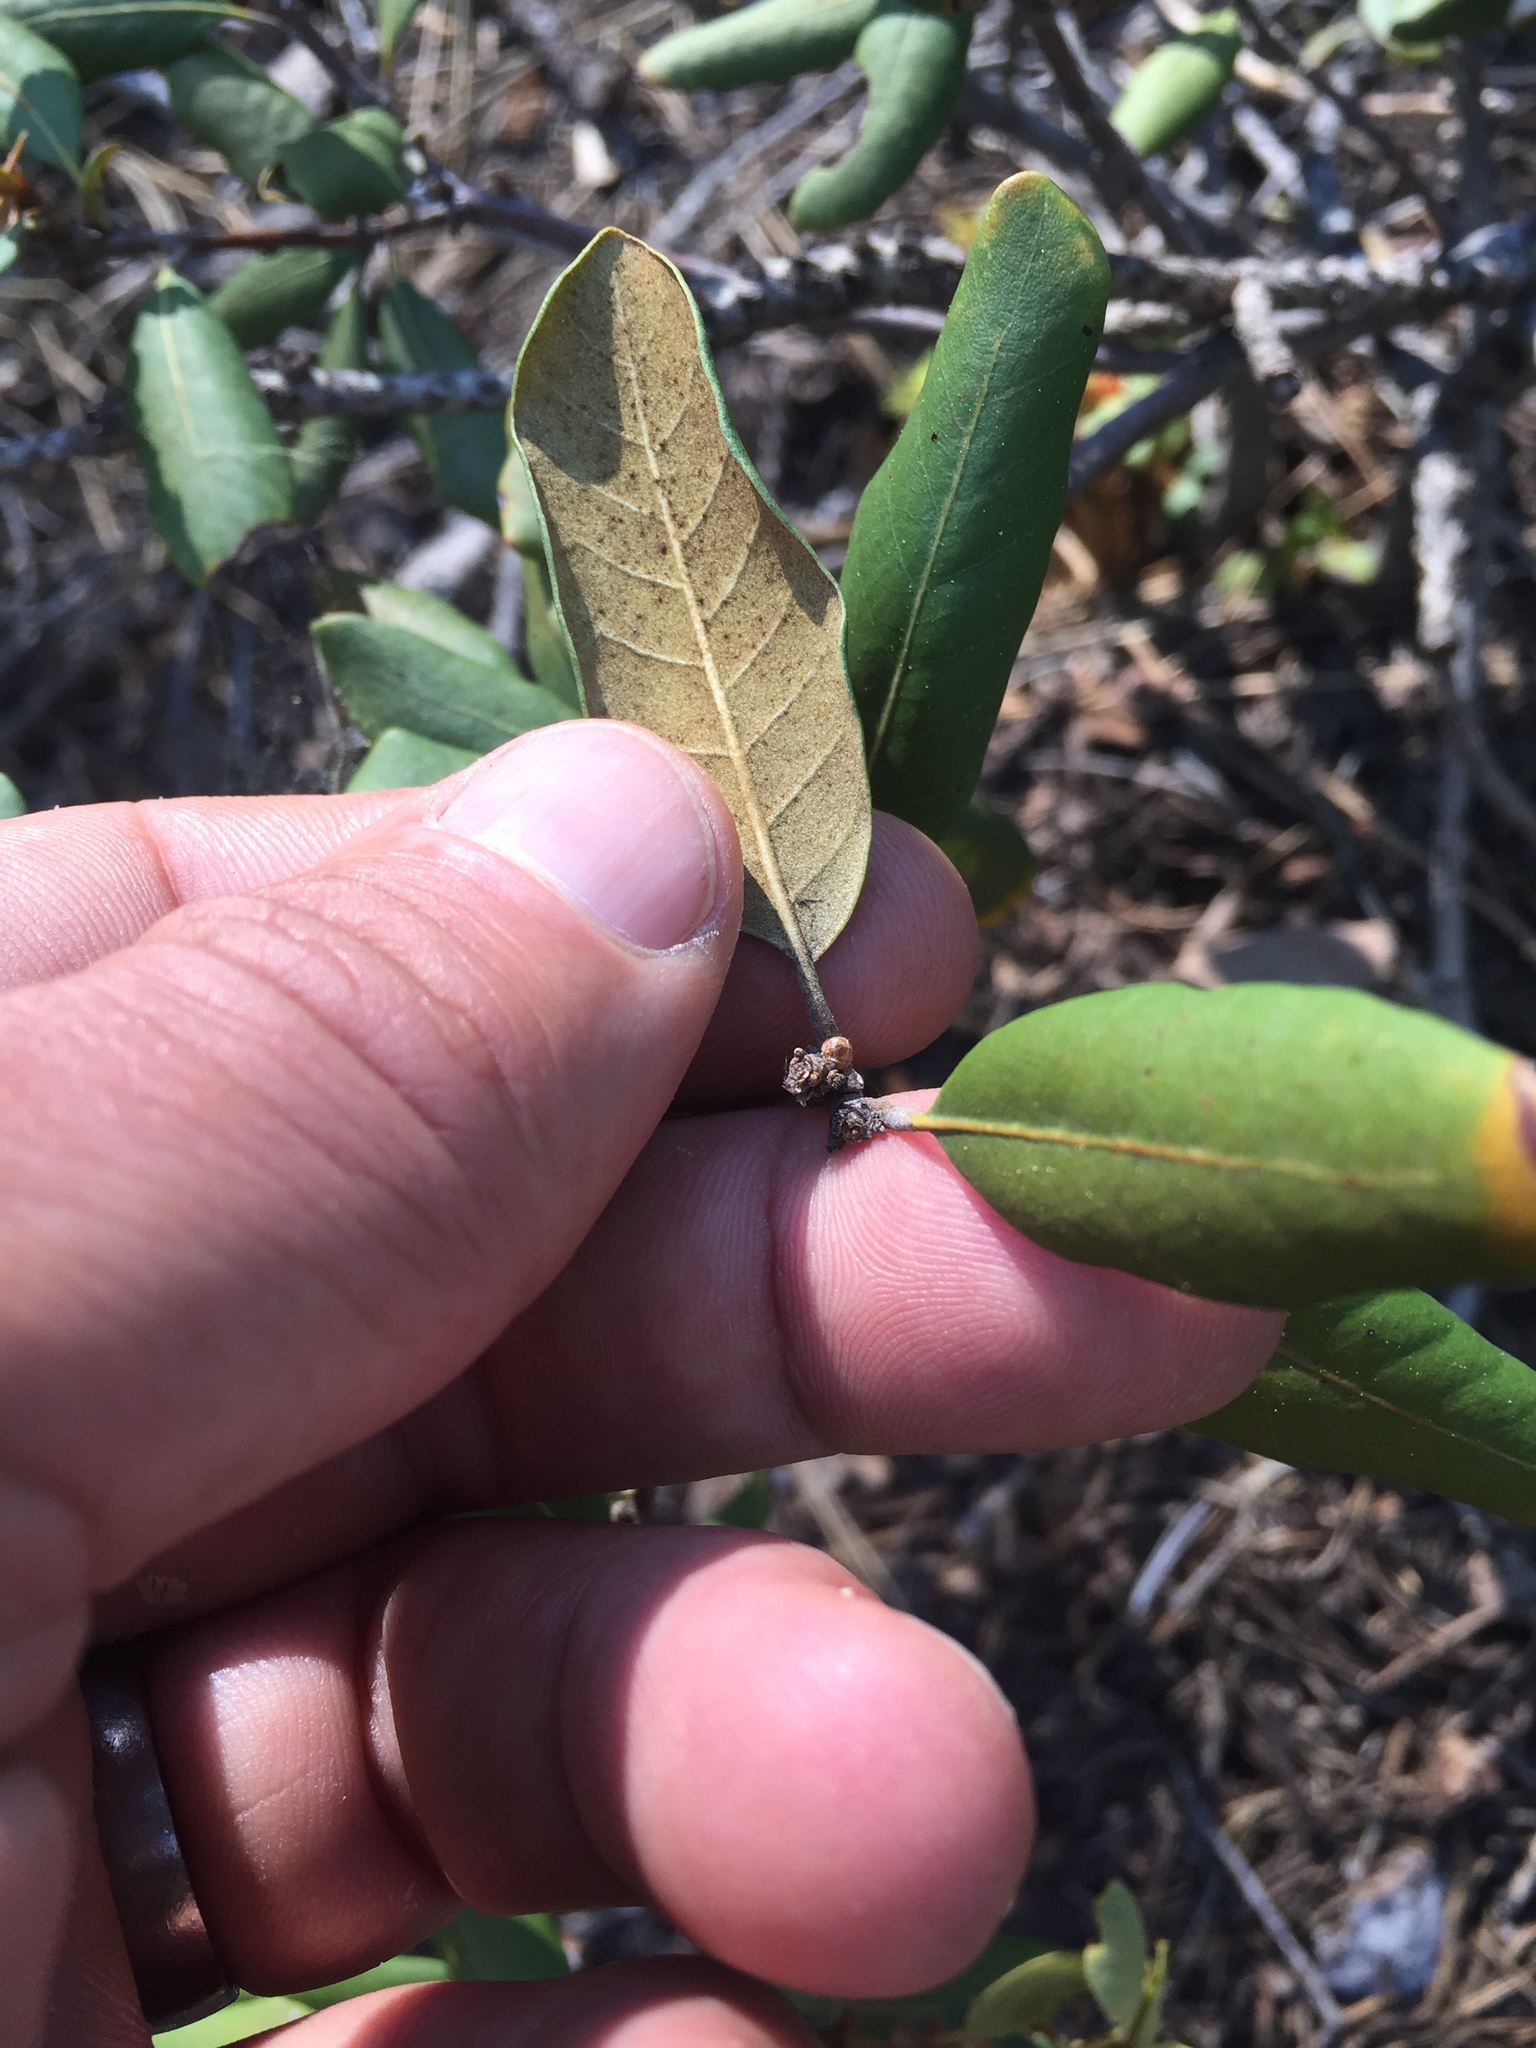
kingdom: Plantae
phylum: Tracheophyta
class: Magnoliopsida
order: Fagales
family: Fagaceae
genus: Chrysolepis
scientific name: Chrysolepis sempervirens
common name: Bush chinquapin
